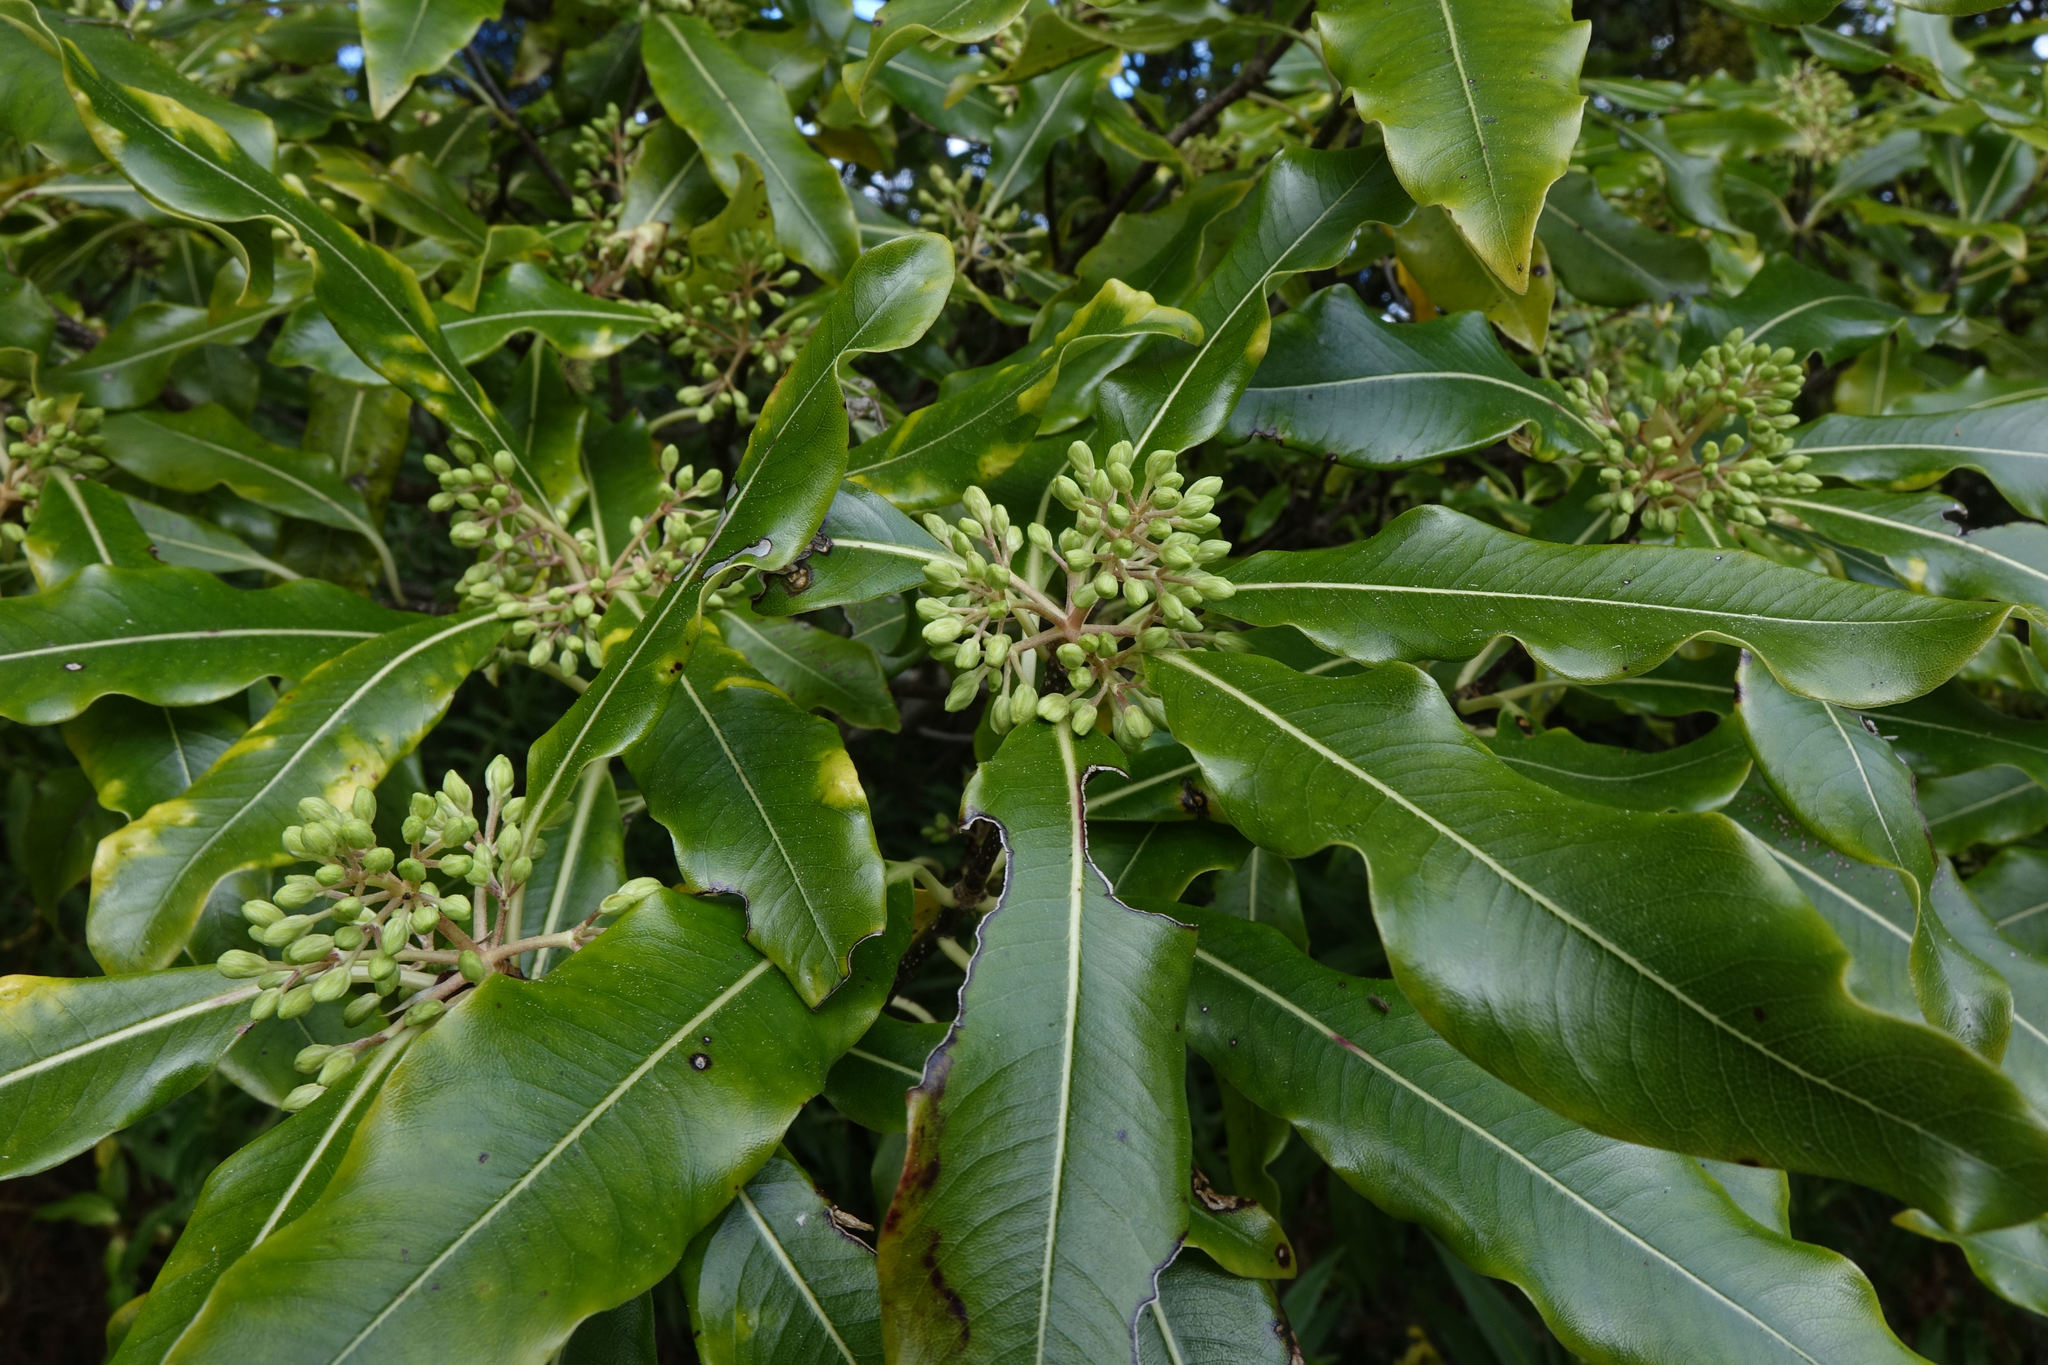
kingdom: Plantae
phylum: Tracheophyta
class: Magnoliopsida
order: Apiales
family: Pittosporaceae
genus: Pittosporum
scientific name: Pittosporum eugenioides
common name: Lemonwood
